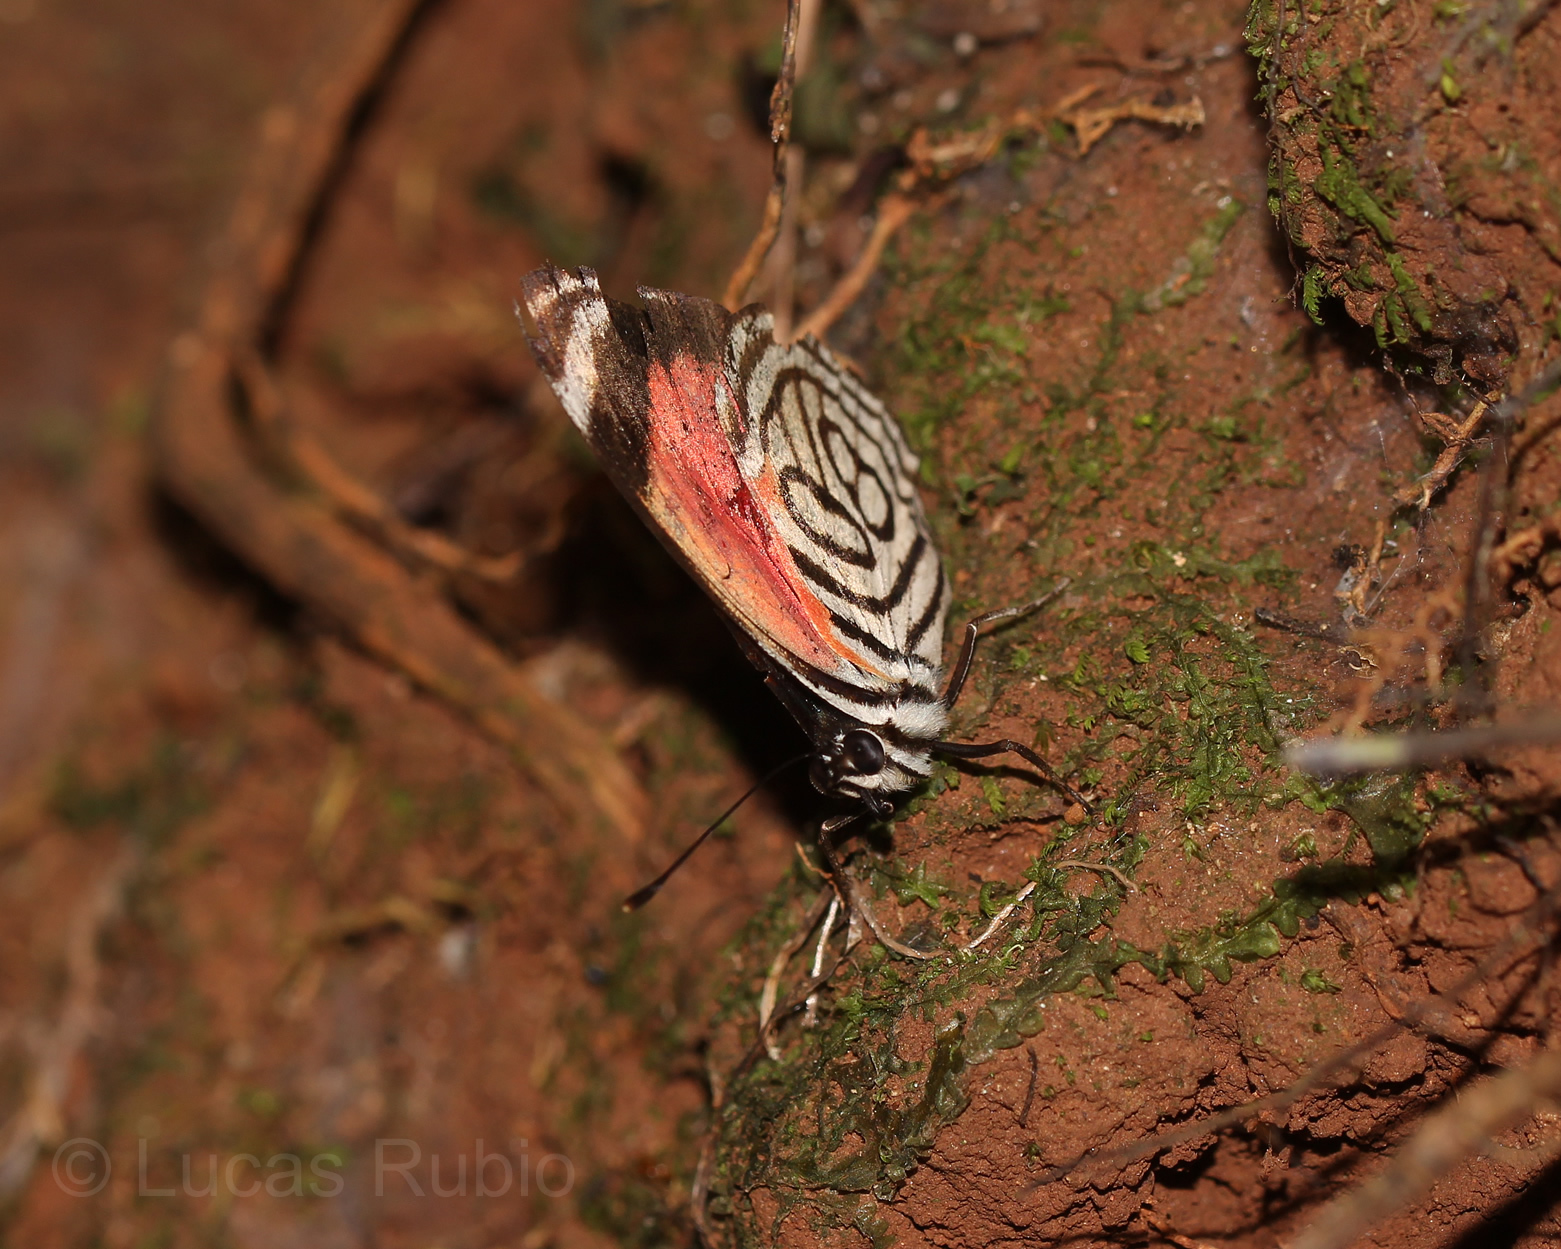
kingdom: Animalia
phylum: Arthropoda
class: Insecta
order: Lepidoptera
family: Nymphalidae
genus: Diaethria
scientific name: Diaethria clymena
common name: Widespread eighty-eight
